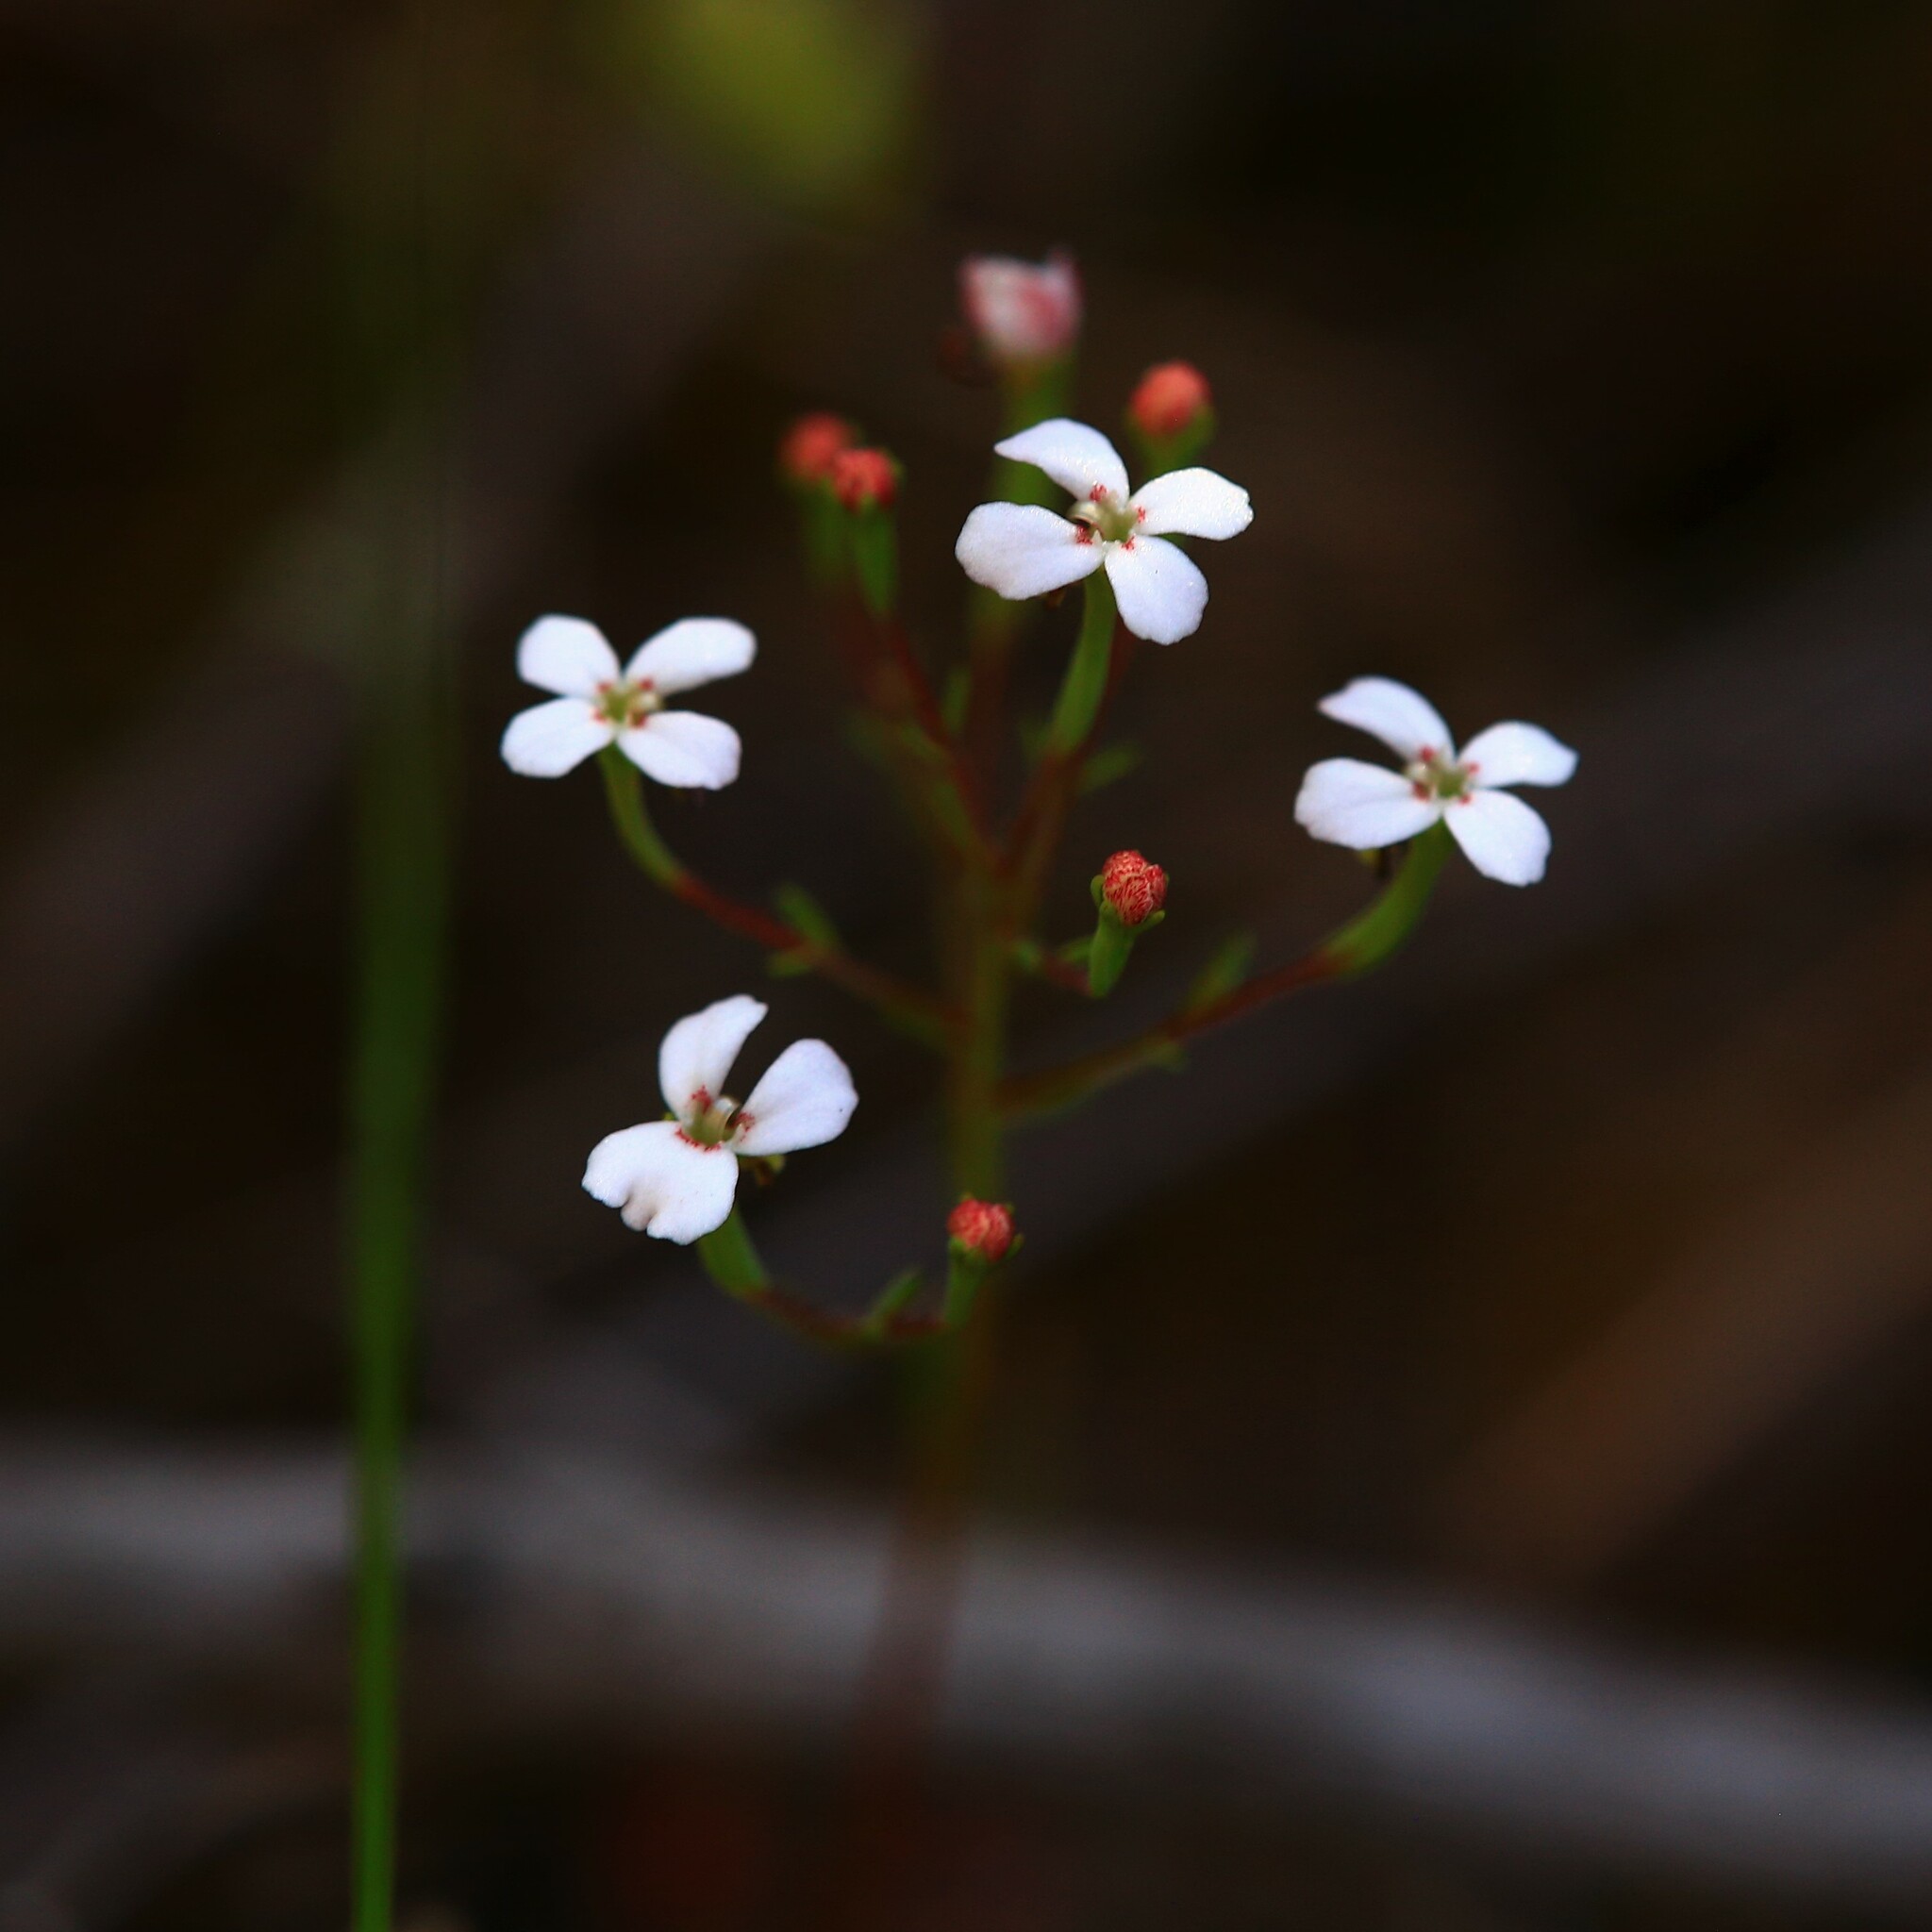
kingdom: Plantae
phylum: Tracheophyta
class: Magnoliopsida
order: Asterales
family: Stylidiaceae
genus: Stylidium
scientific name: Stylidium pulchellum
